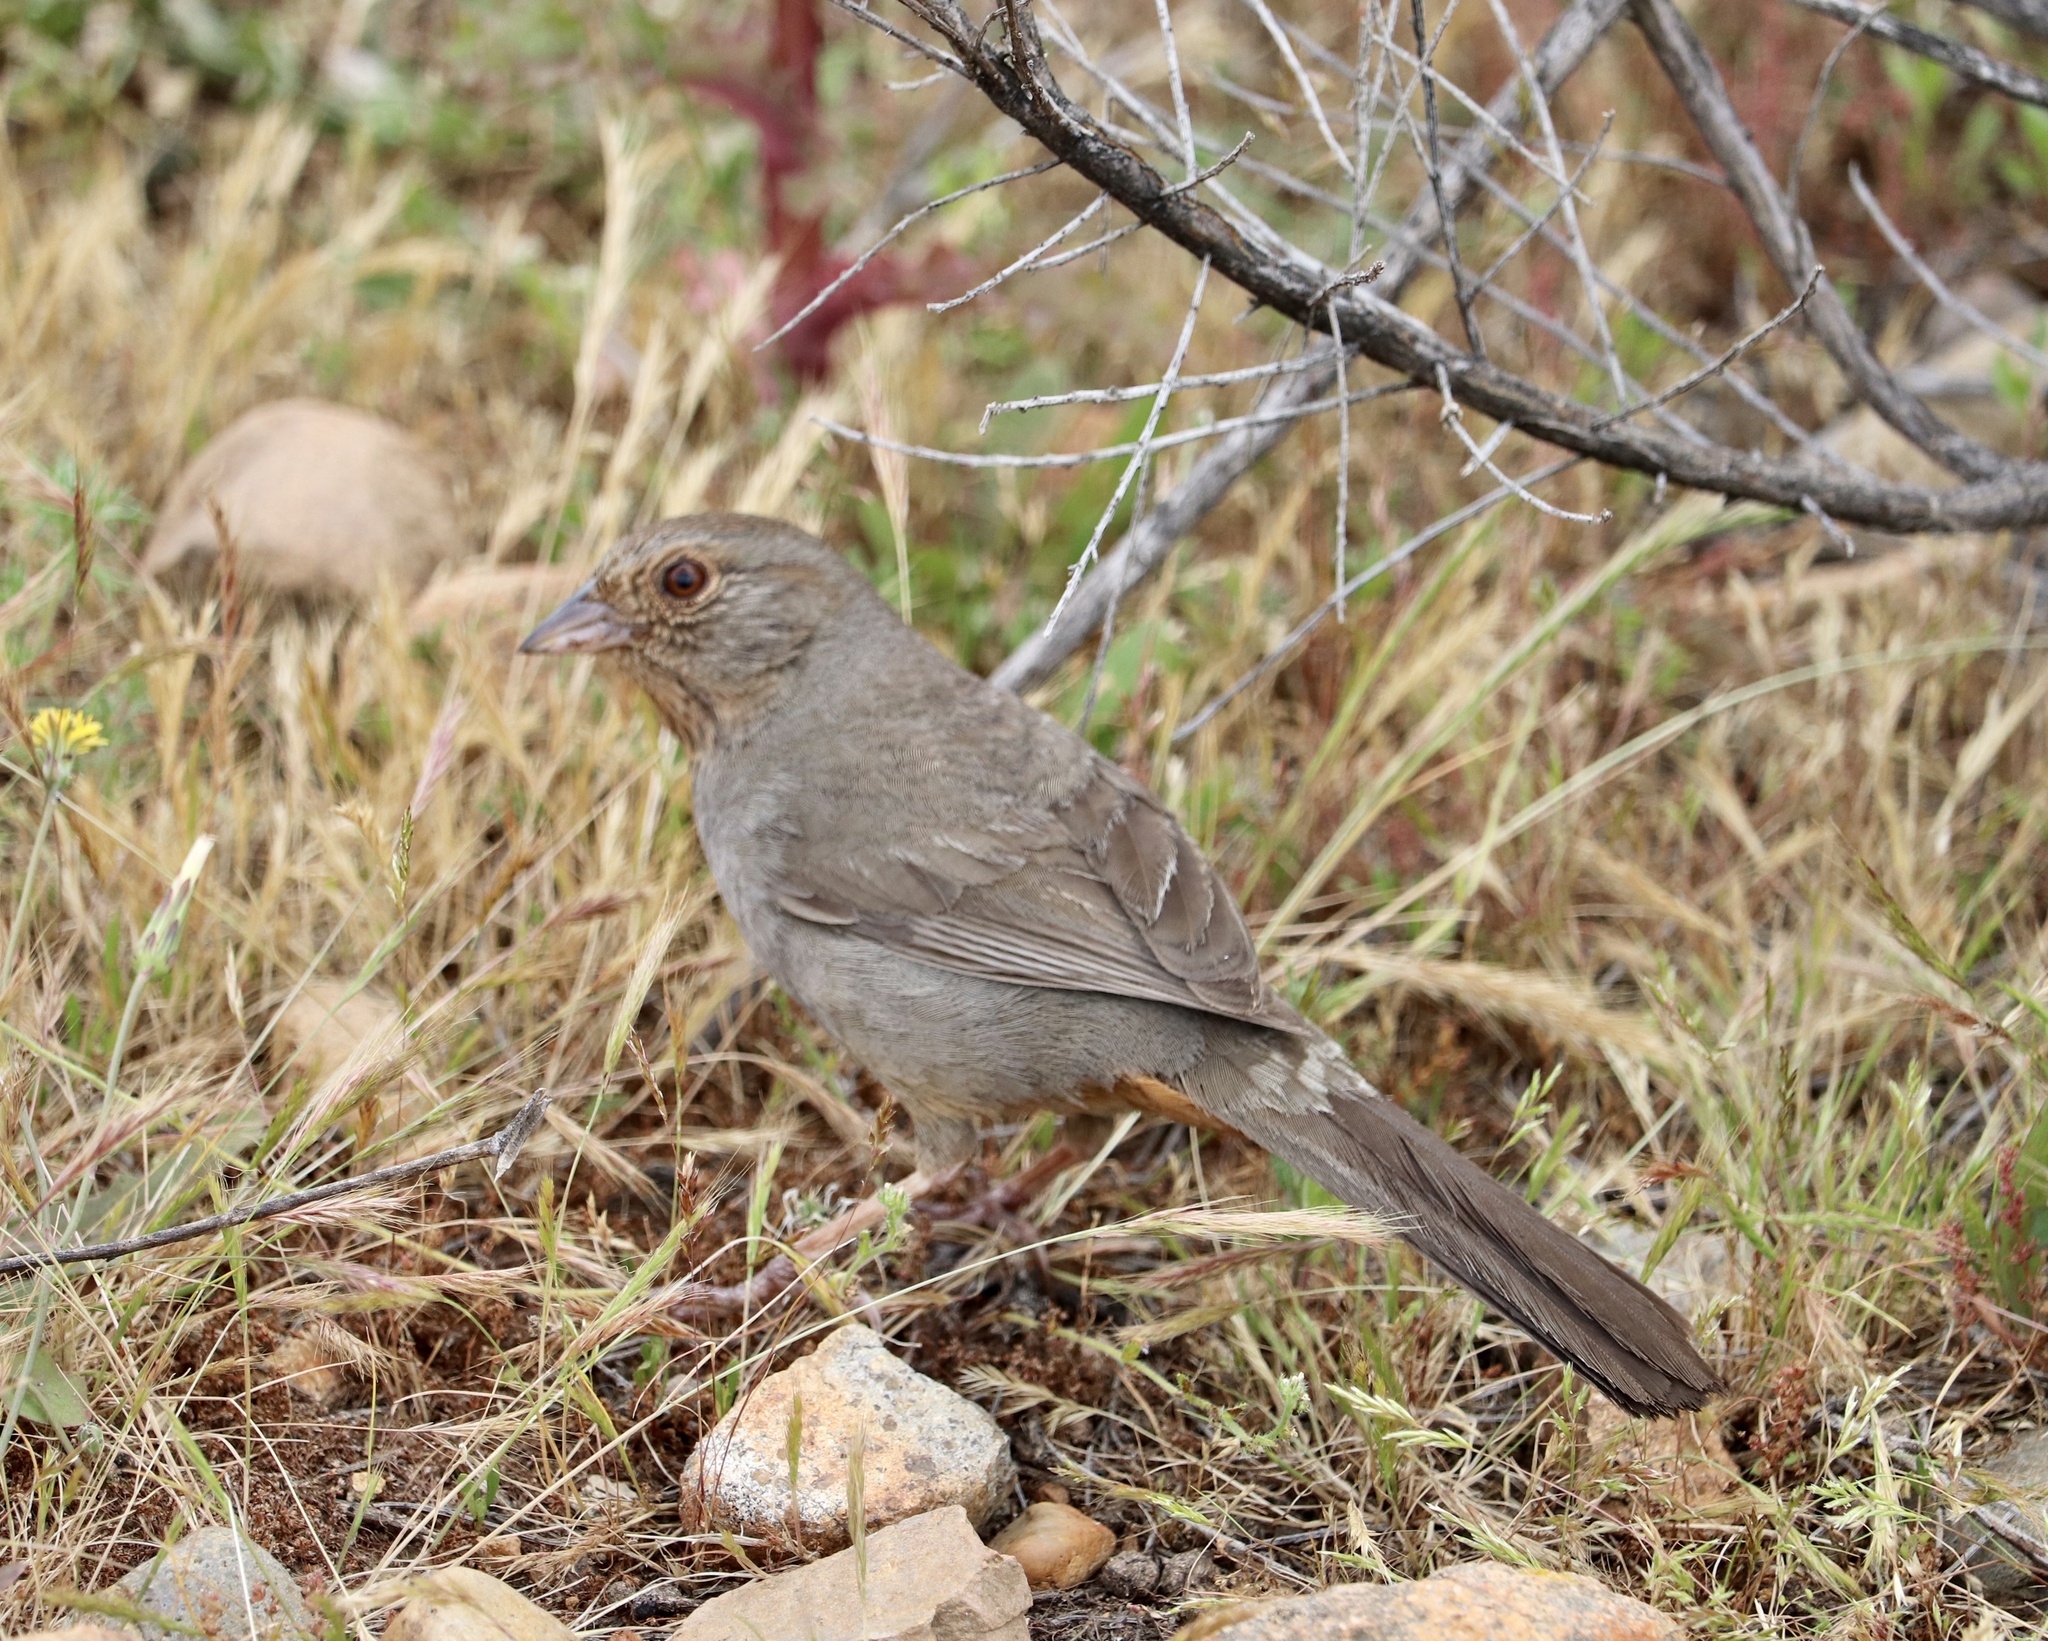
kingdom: Animalia
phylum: Chordata
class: Aves
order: Passeriformes
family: Passerellidae
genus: Melozone
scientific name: Melozone crissalis
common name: California towhee
